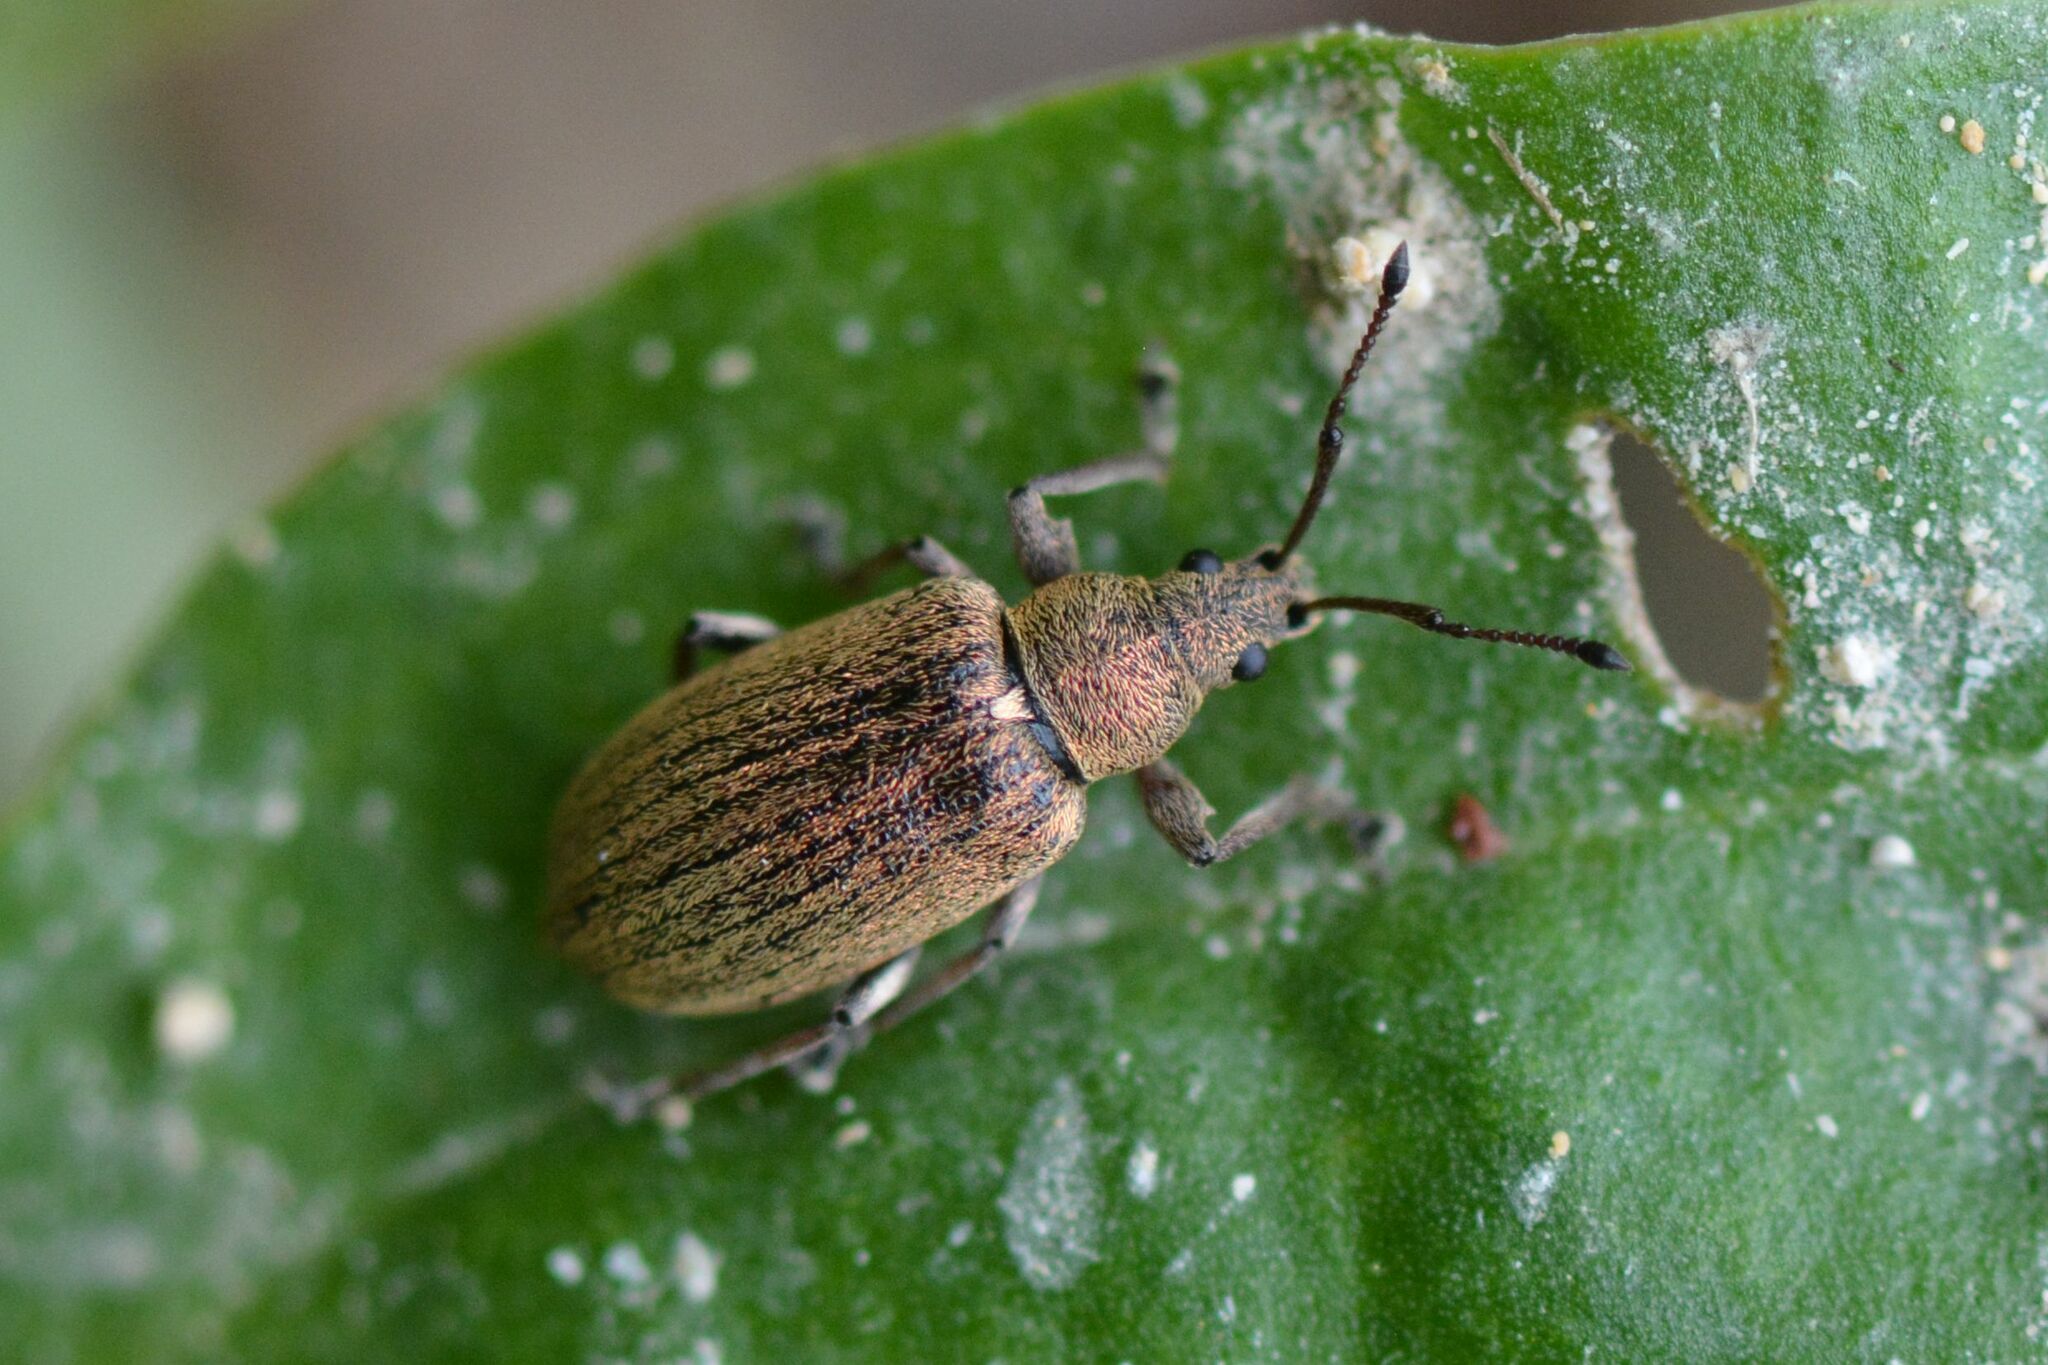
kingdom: Animalia
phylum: Arthropoda
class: Insecta
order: Coleoptera
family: Curculionidae
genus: Phyllobius
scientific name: Phyllobius pyri
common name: Common leaf weevil
